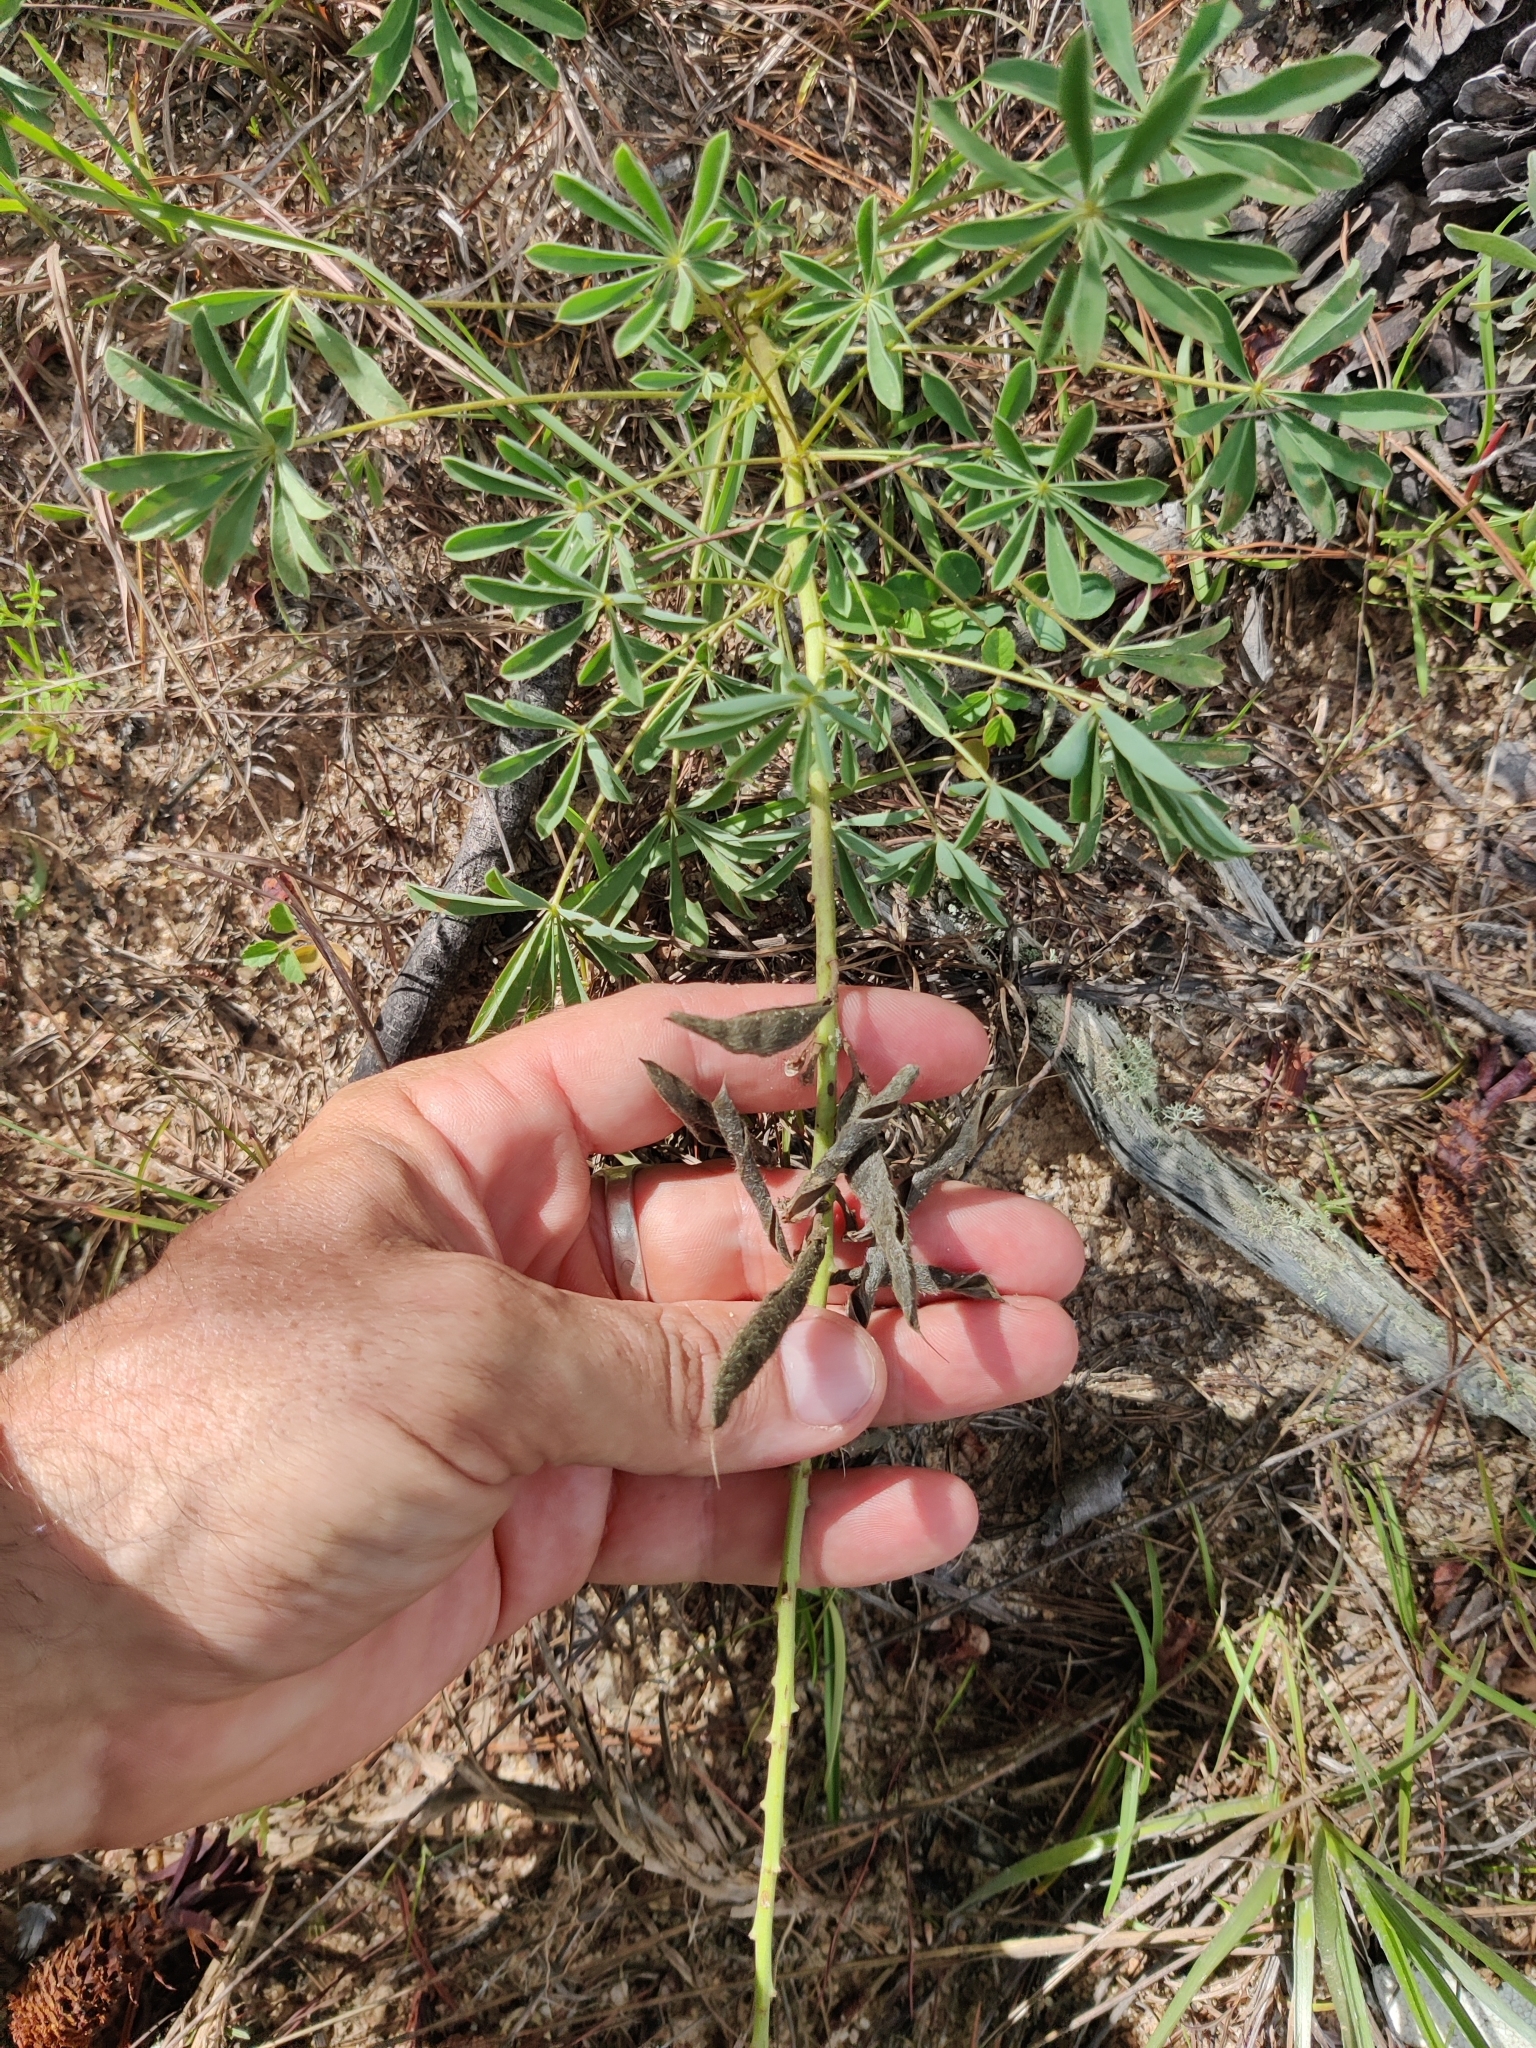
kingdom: Plantae
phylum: Tracheophyta
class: Magnoliopsida
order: Fabales
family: Fabaceae
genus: Lupinus
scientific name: Lupinus perennis
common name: Sundial lupine
